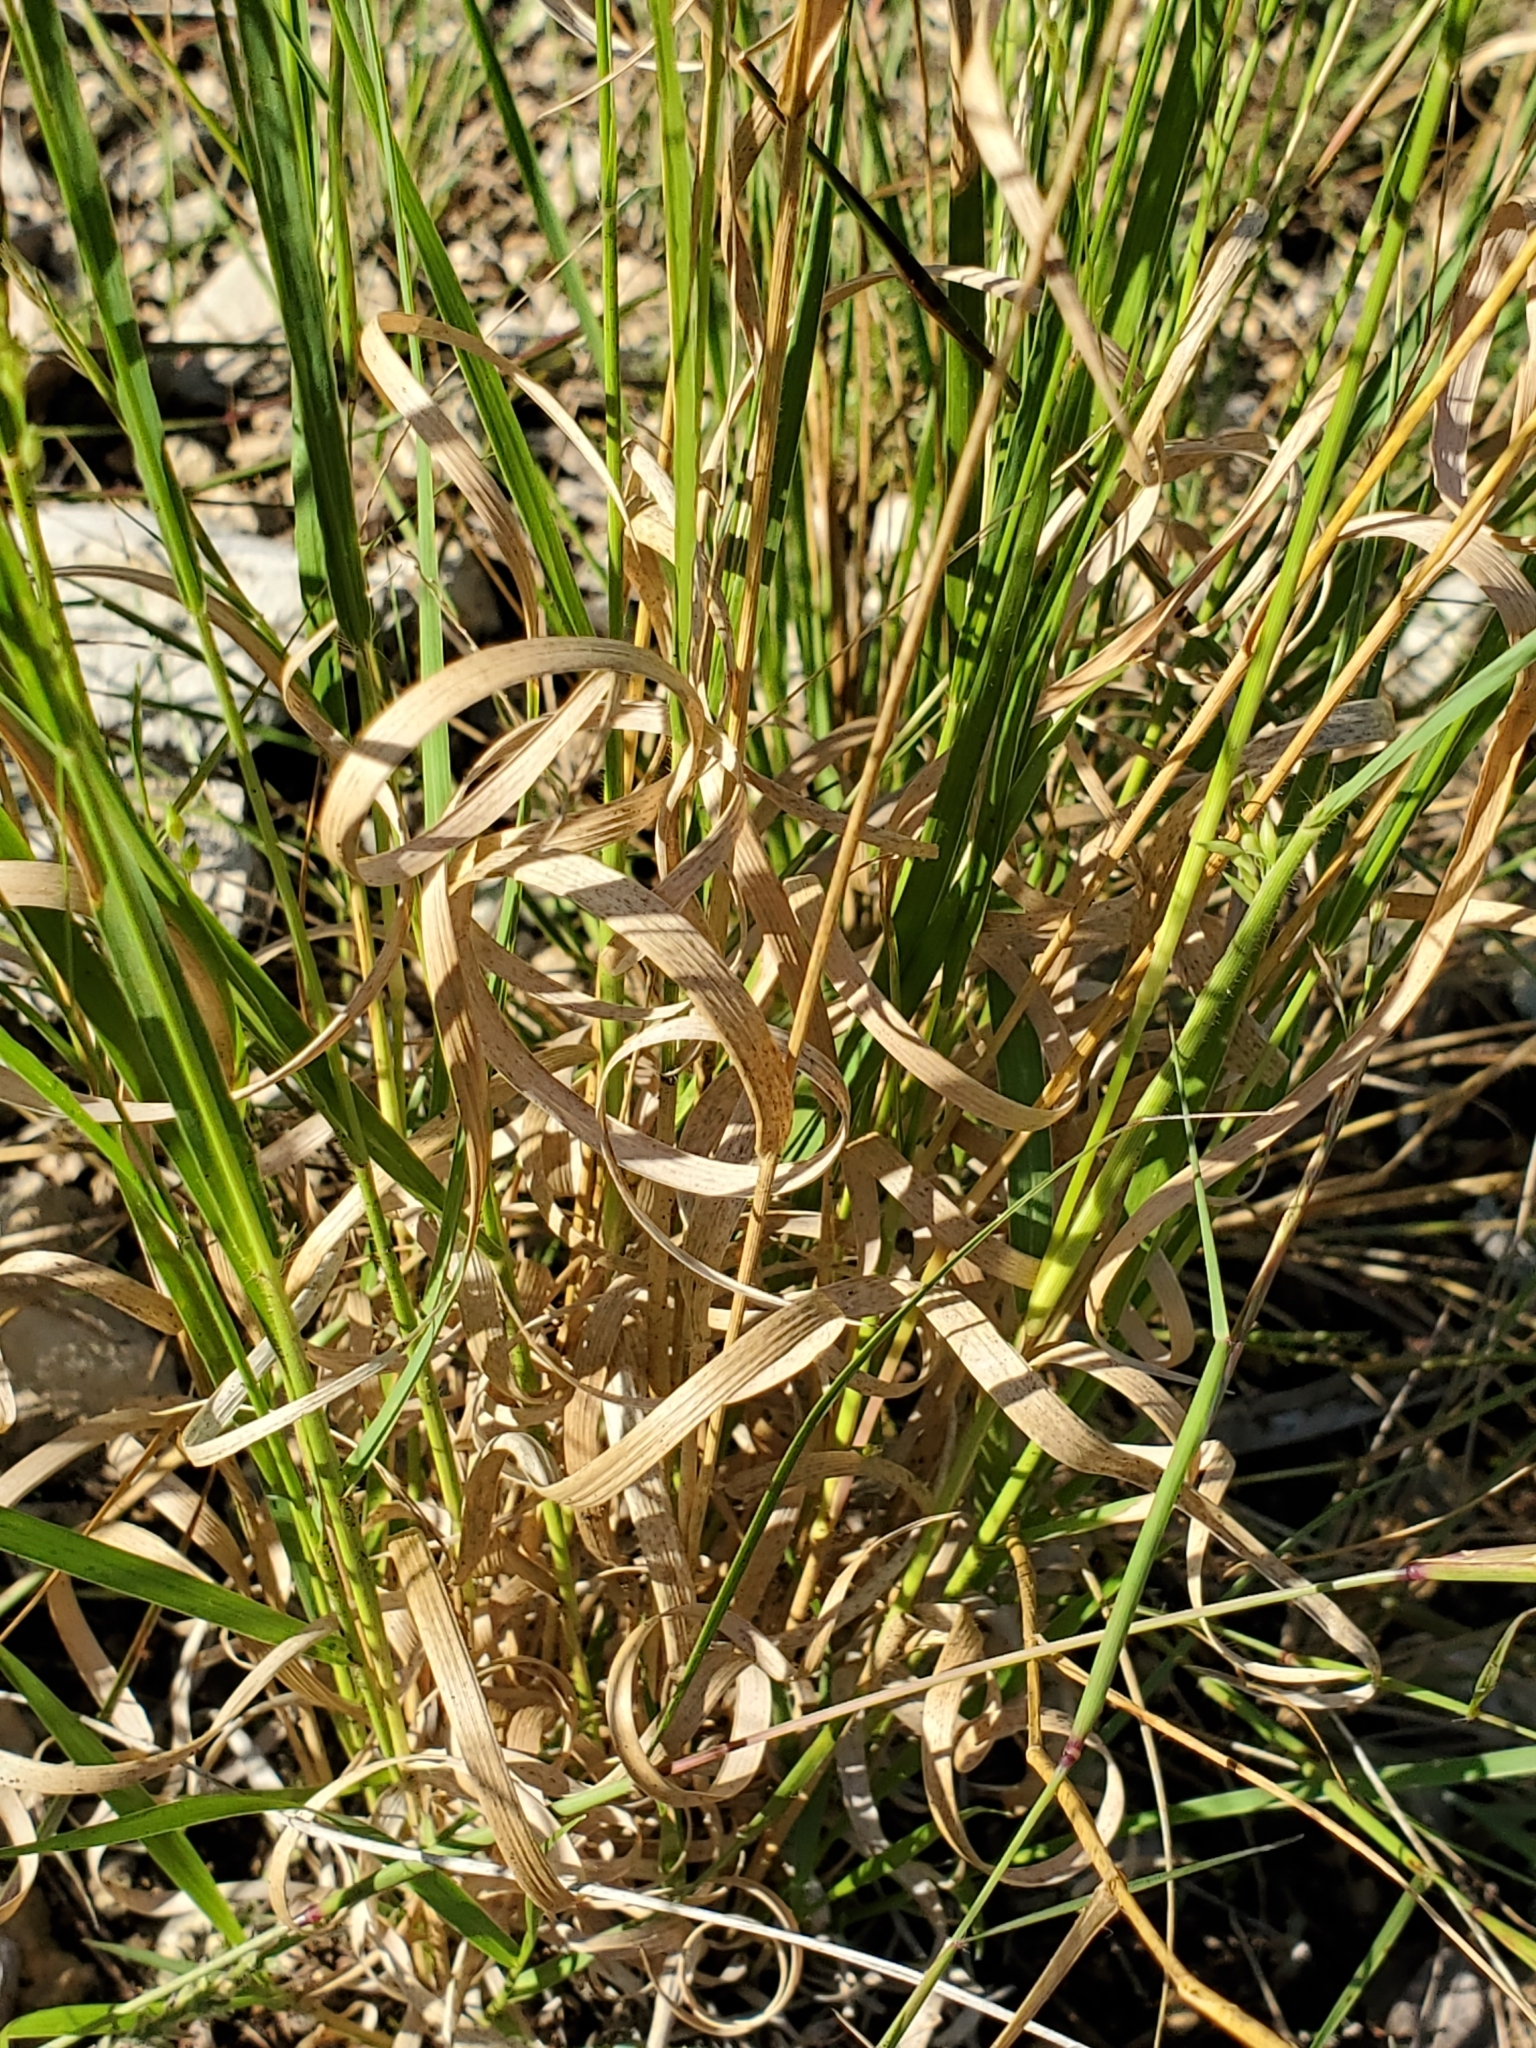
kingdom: Plantae
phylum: Tracheophyta
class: Liliopsida
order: Poales
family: Poaceae
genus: Panicum
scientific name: Panicum hallii
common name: Hall's witchgrass
